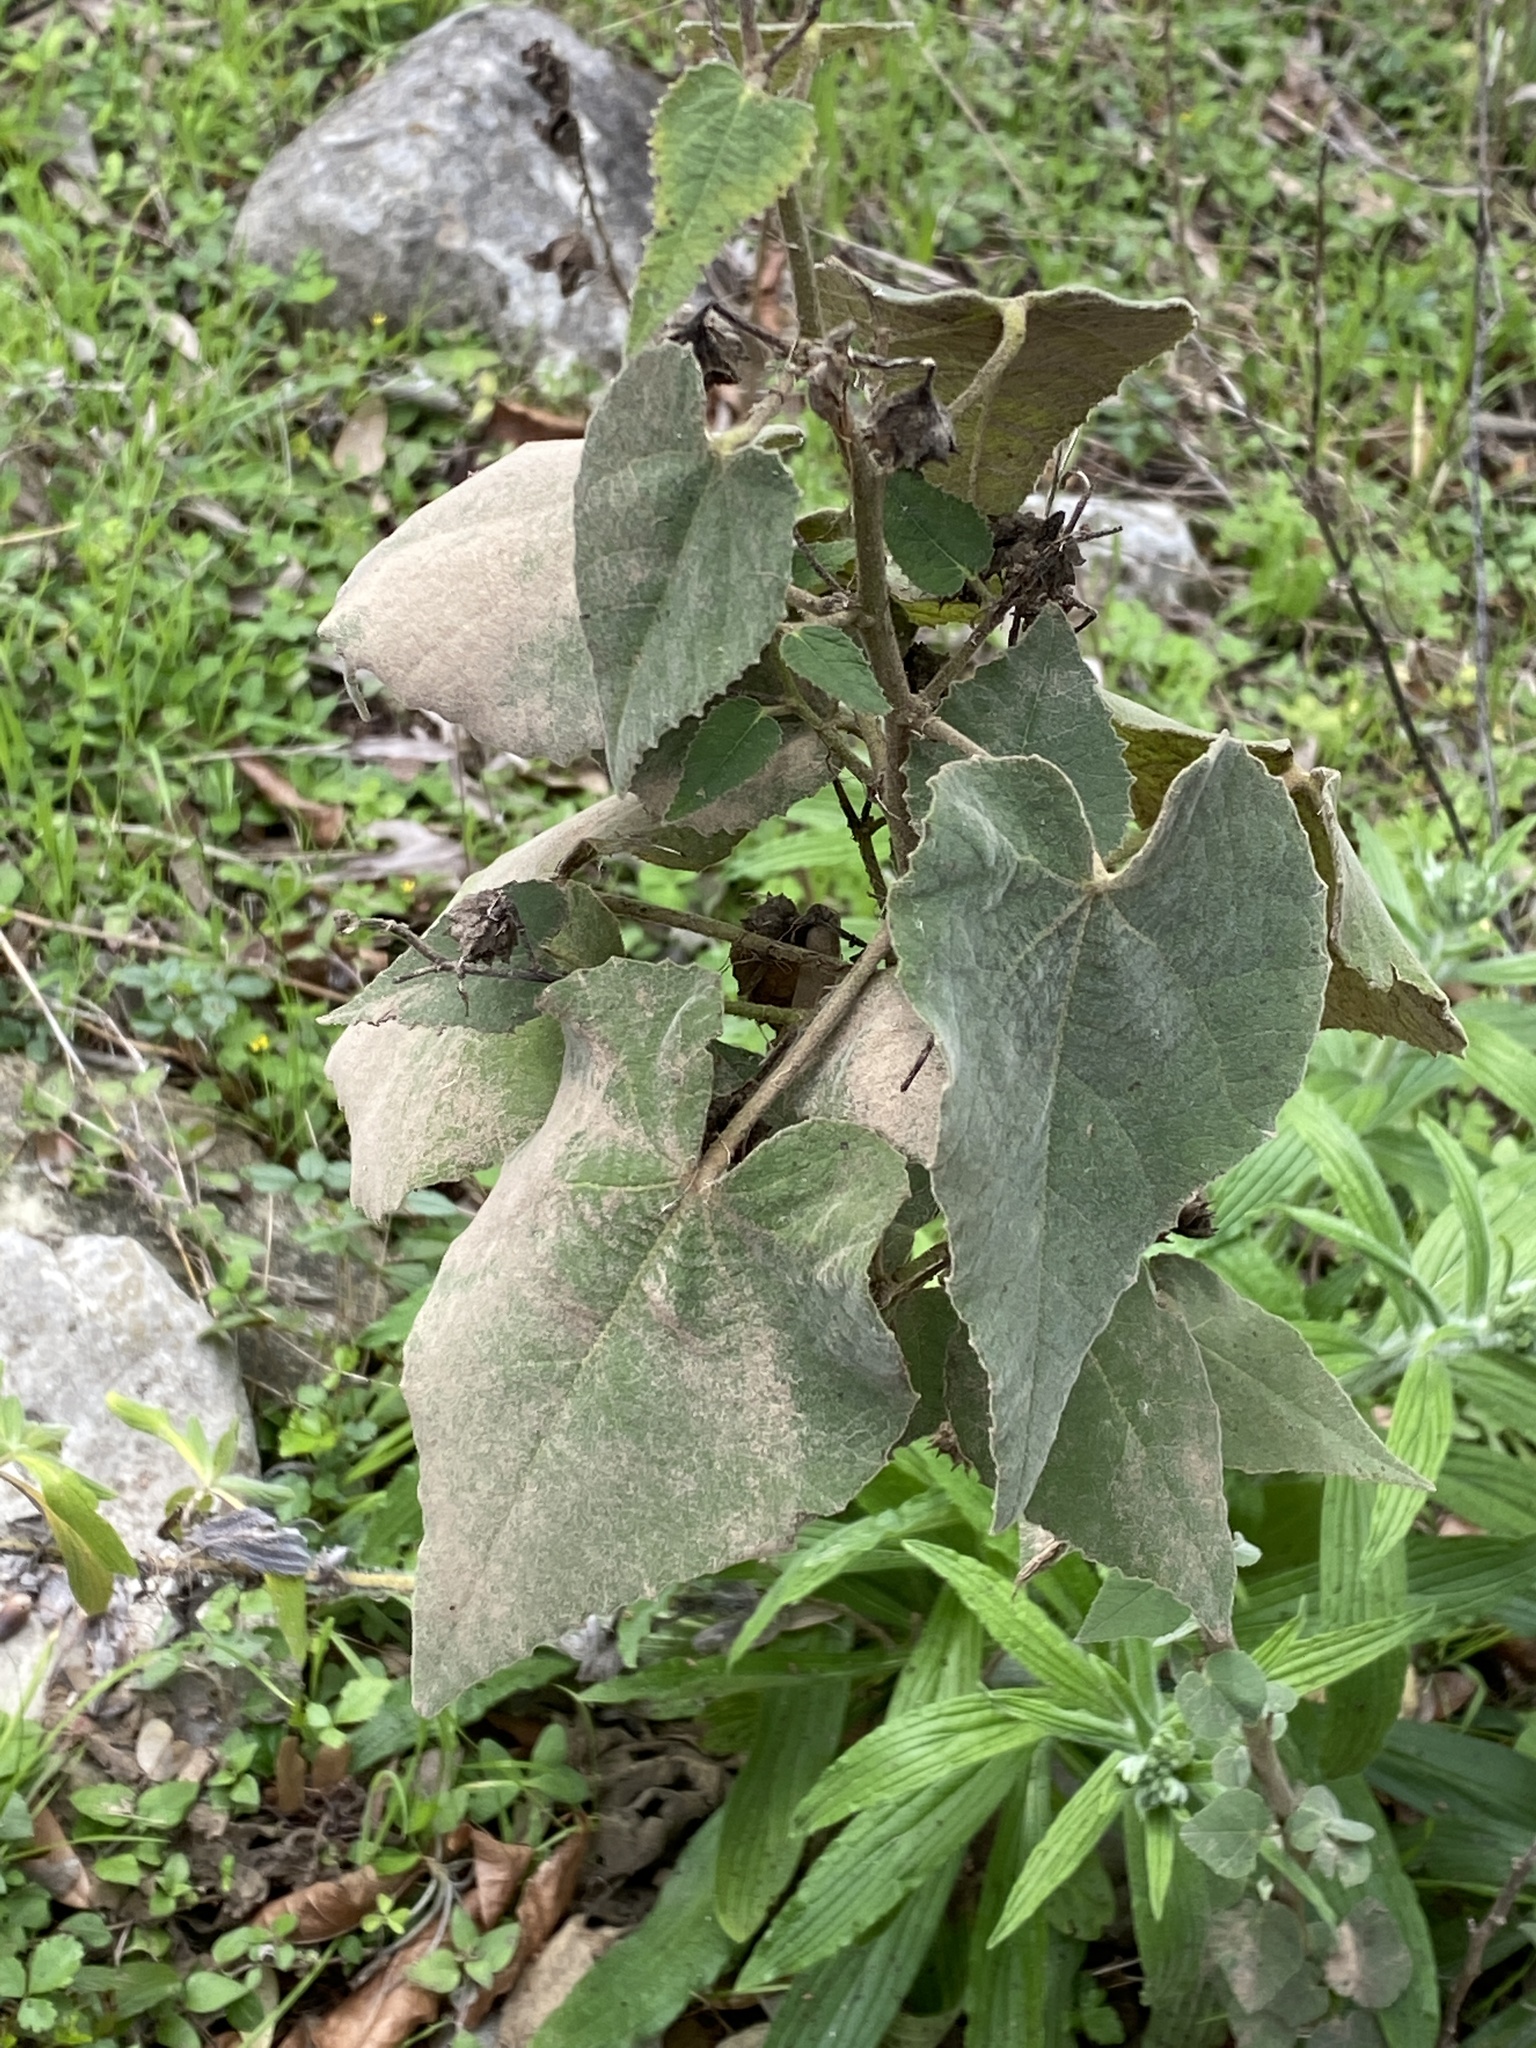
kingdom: Plantae
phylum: Tracheophyta
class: Magnoliopsida
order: Malvales
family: Malvaceae
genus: Allowissadula
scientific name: Allowissadula holosericea
